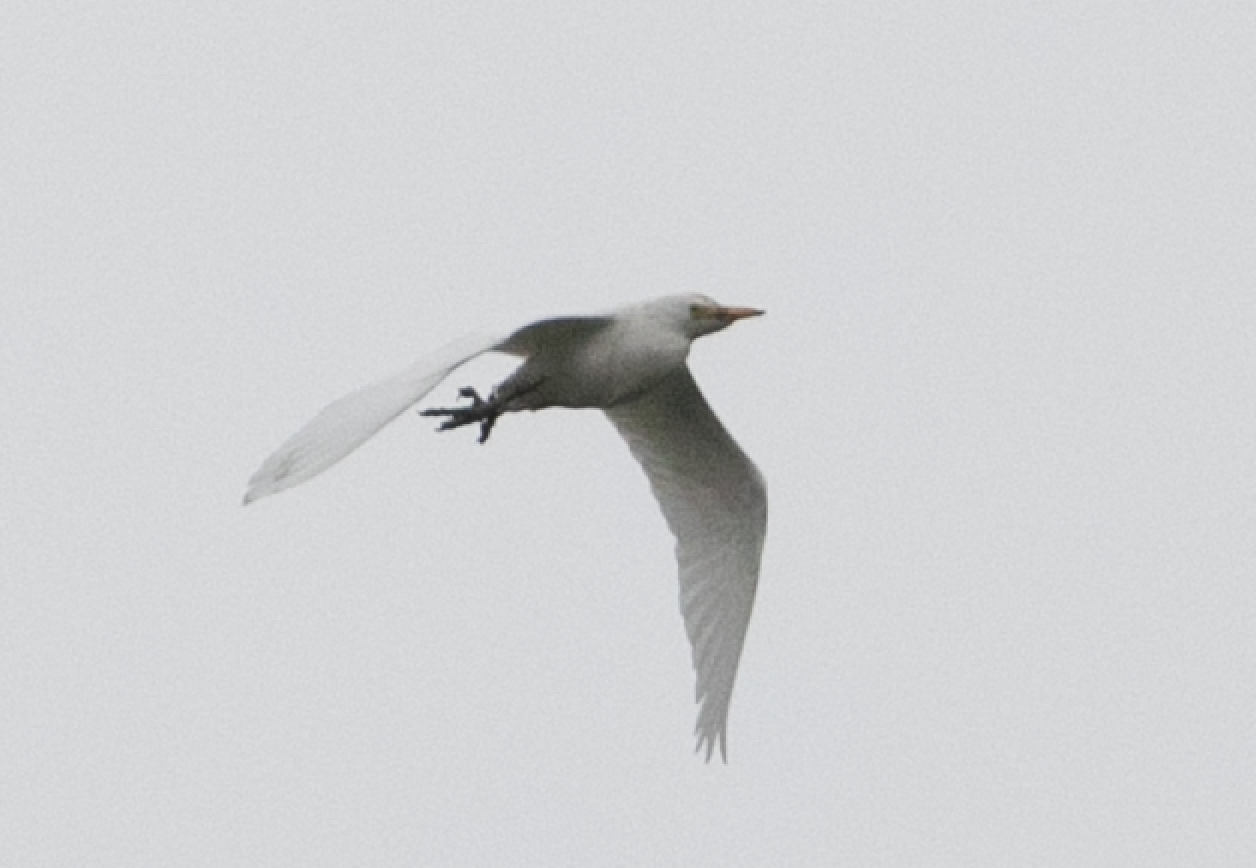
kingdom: Animalia
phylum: Chordata
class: Aves
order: Pelecaniformes
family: Ardeidae
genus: Bubulcus
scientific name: Bubulcus ibis
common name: Cattle egret
